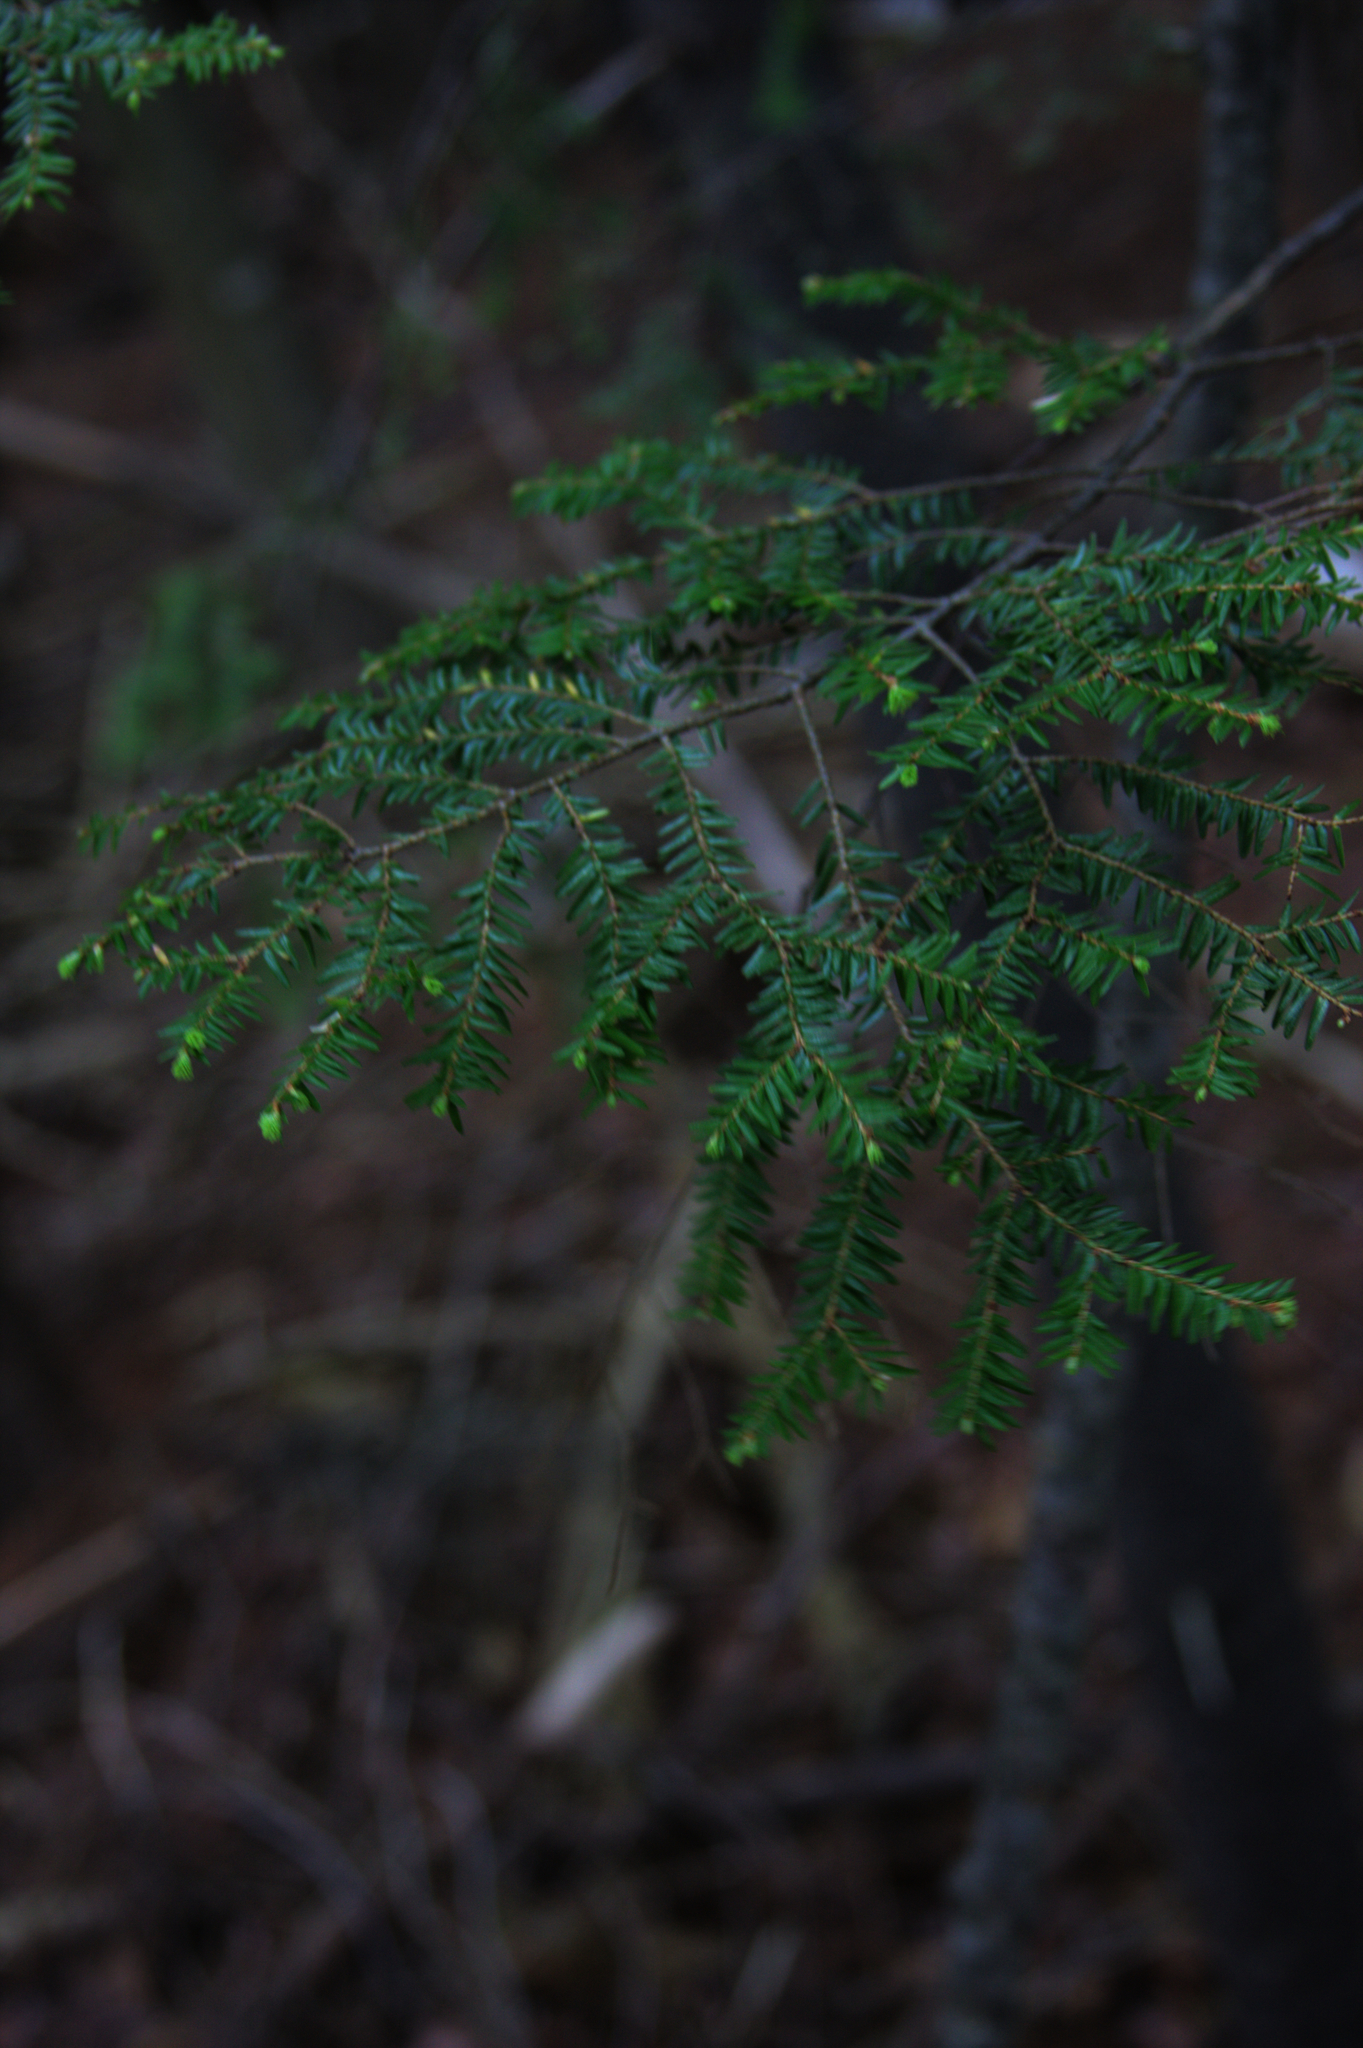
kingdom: Plantae
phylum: Tracheophyta
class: Pinopsida
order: Pinales
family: Pinaceae
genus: Tsuga
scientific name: Tsuga canadensis
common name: Eastern hemlock
